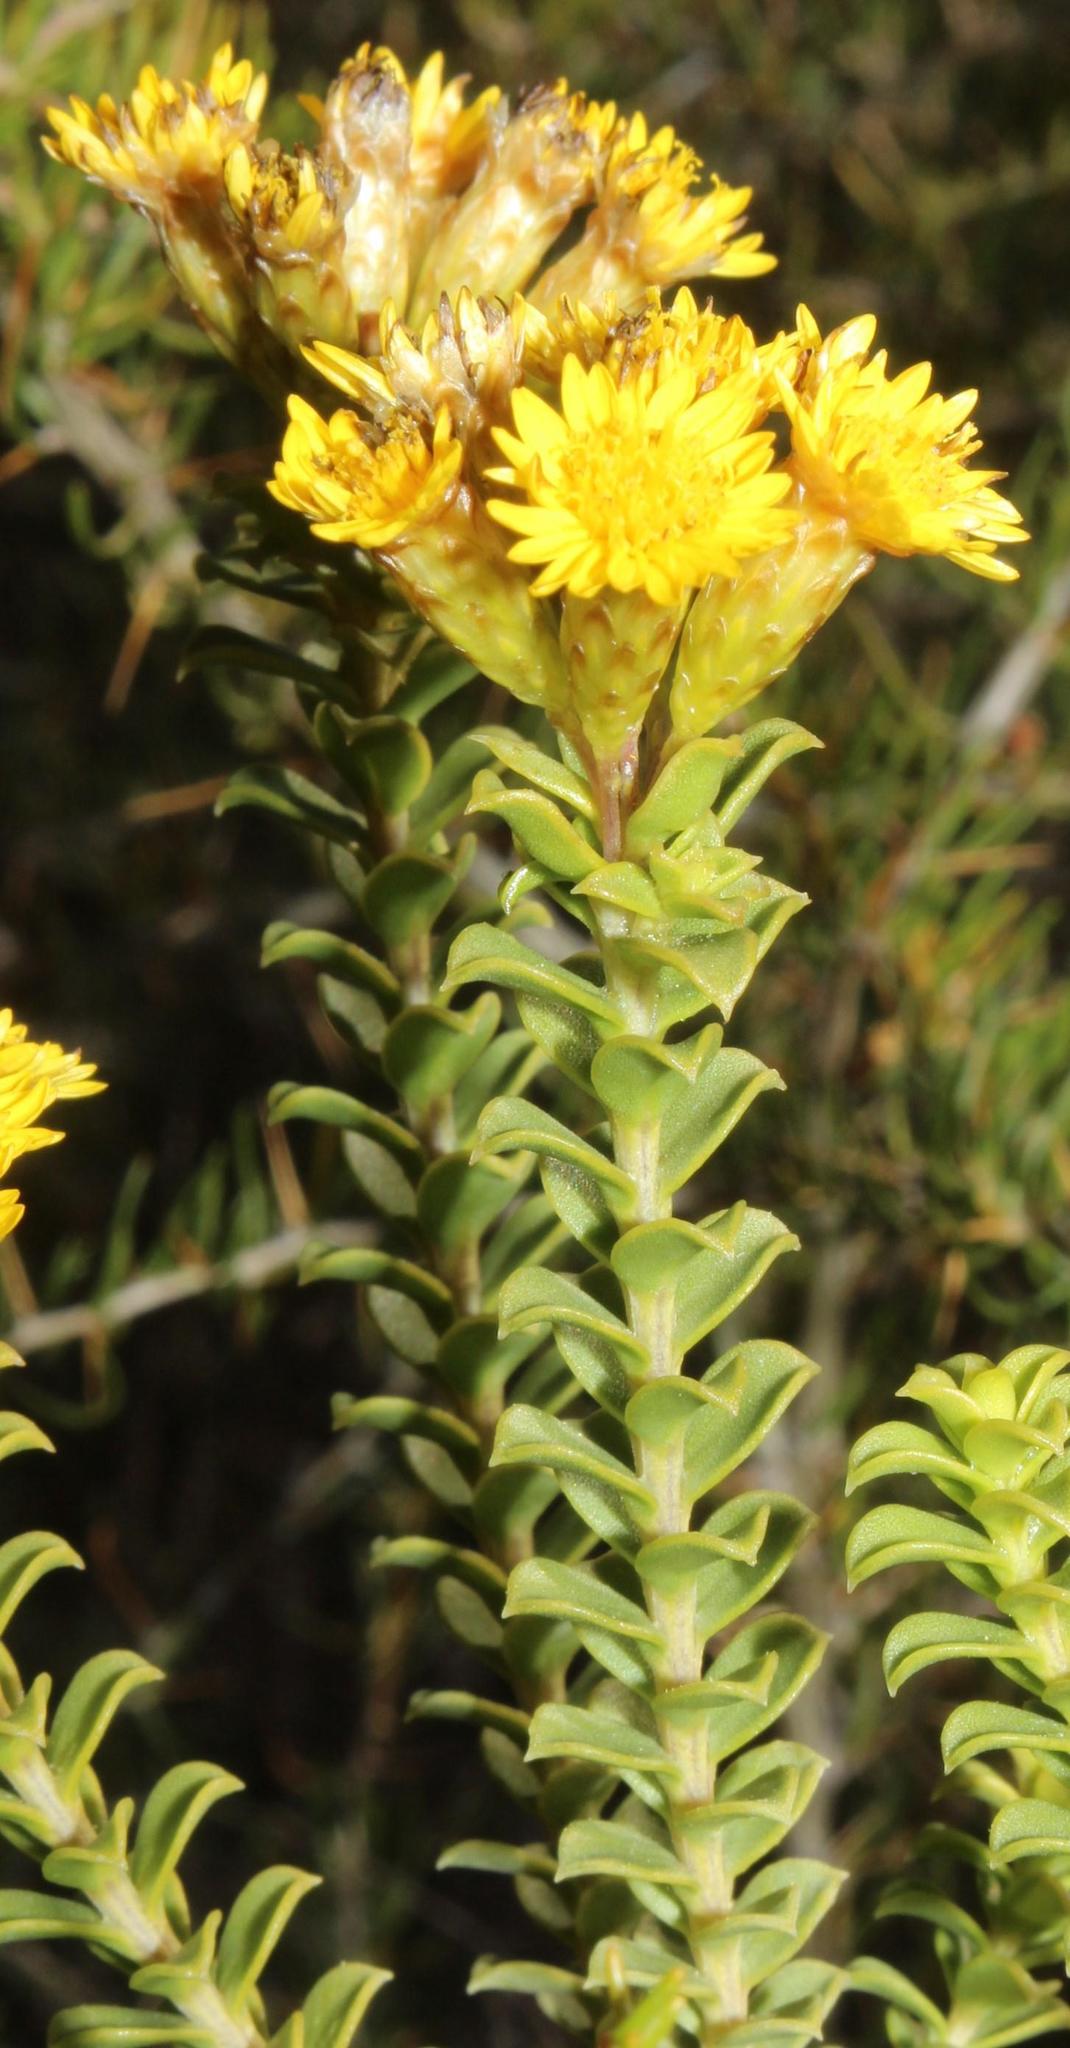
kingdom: Plantae
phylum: Tracheophyta
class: Magnoliopsida
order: Asterales
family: Asteraceae
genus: Oedera
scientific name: Oedera squarrosa
